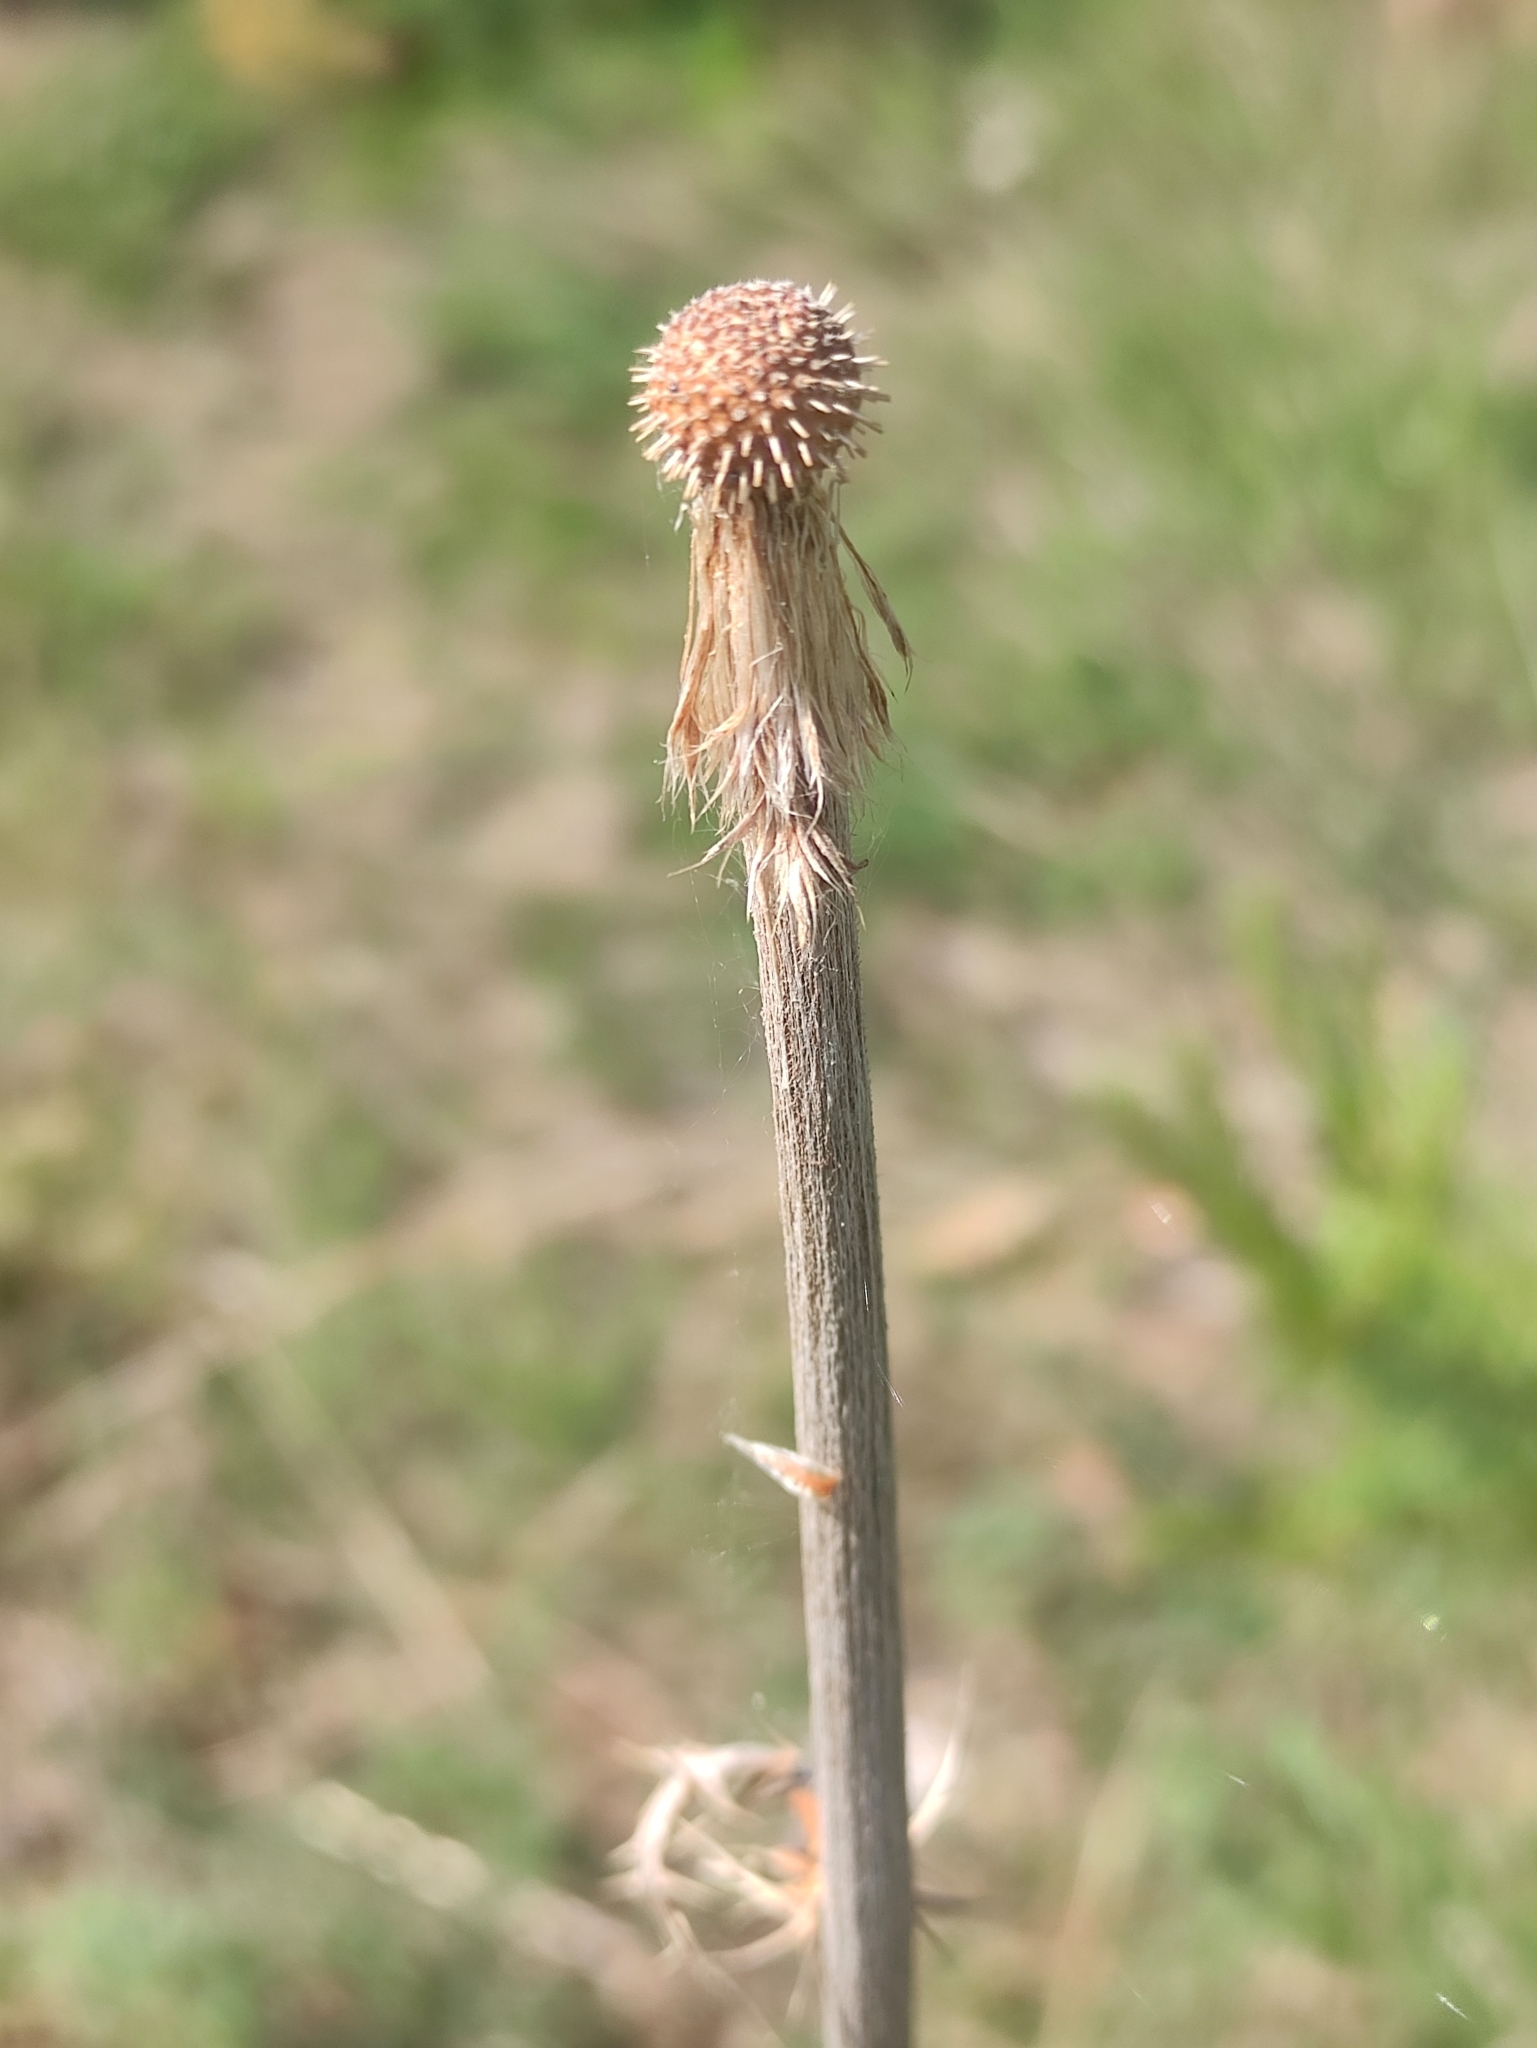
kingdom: Plantae
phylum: Tracheophyta
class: Magnoliopsida
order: Asterales
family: Asteraceae
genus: Echinops
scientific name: Echinops davuricus
